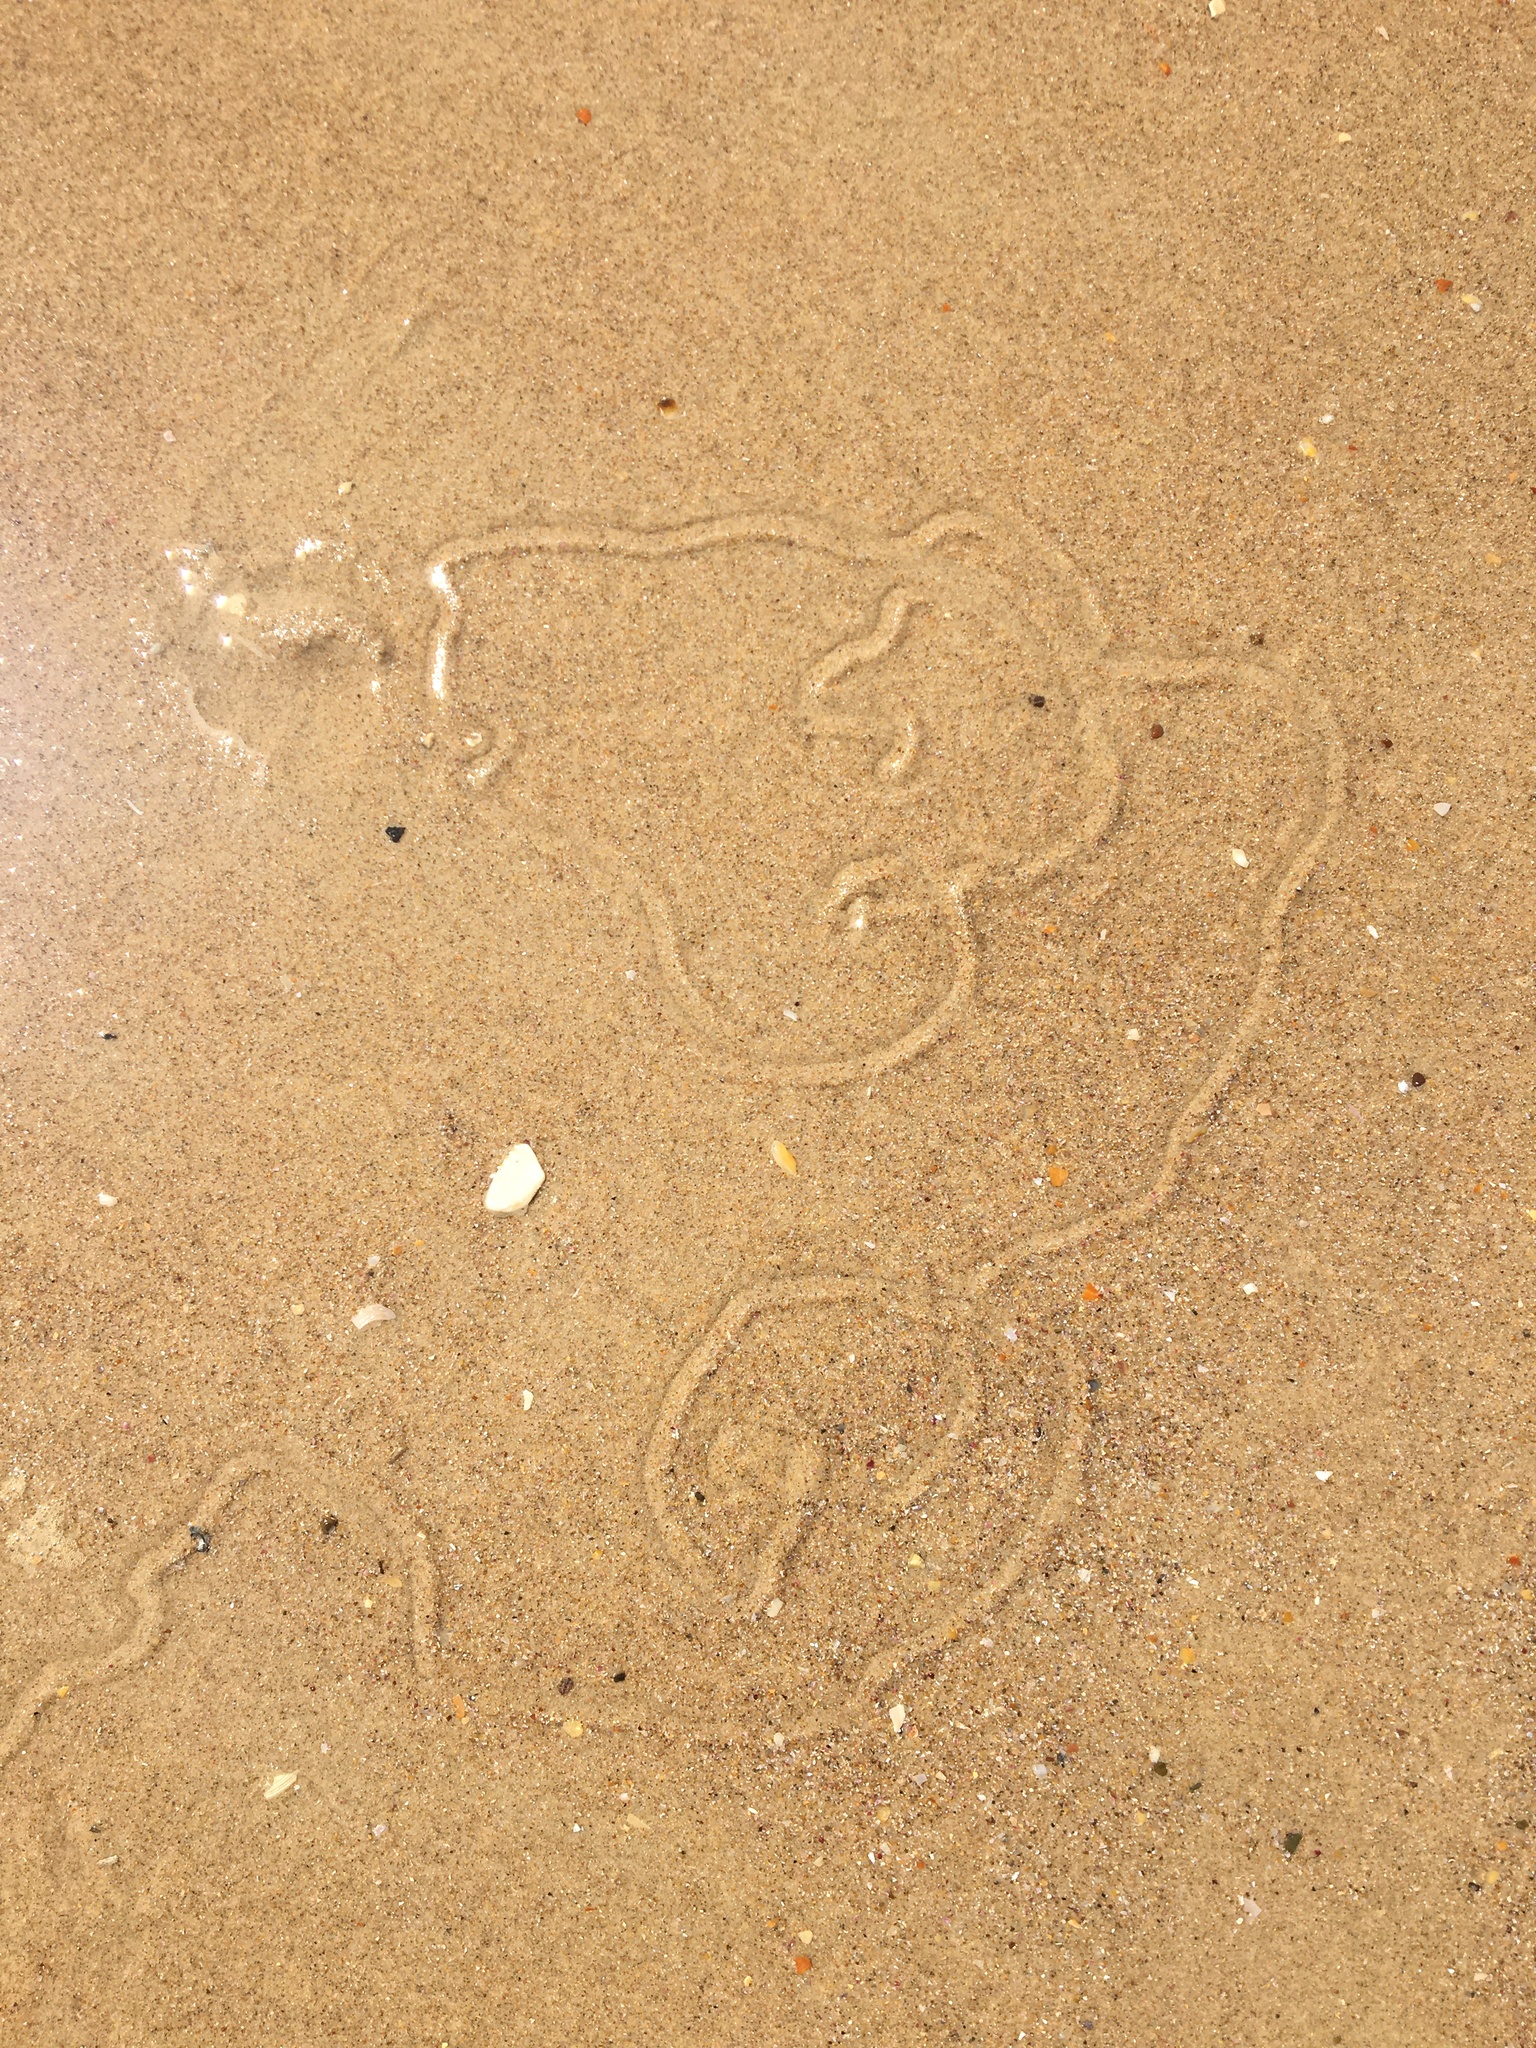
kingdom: Animalia
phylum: Mollusca
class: Gastropoda
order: Littorinimorpha
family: Naticidae
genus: Conuber
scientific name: Conuber incei
